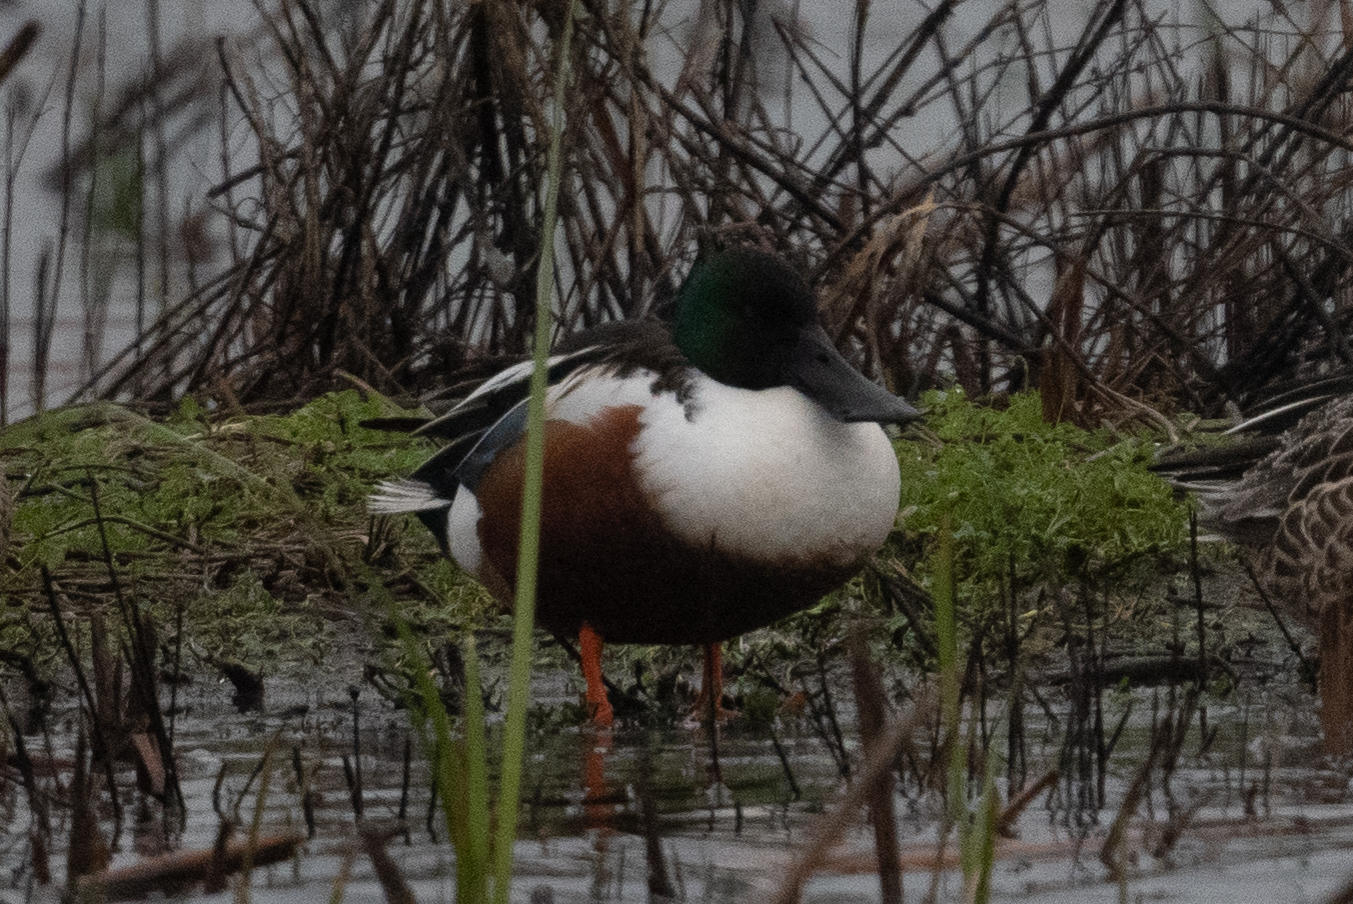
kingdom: Animalia
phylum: Chordata
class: Aves
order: Anseriformes
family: Anatidae
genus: Spatula
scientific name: Spatula clypeata
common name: Northern shoveler
